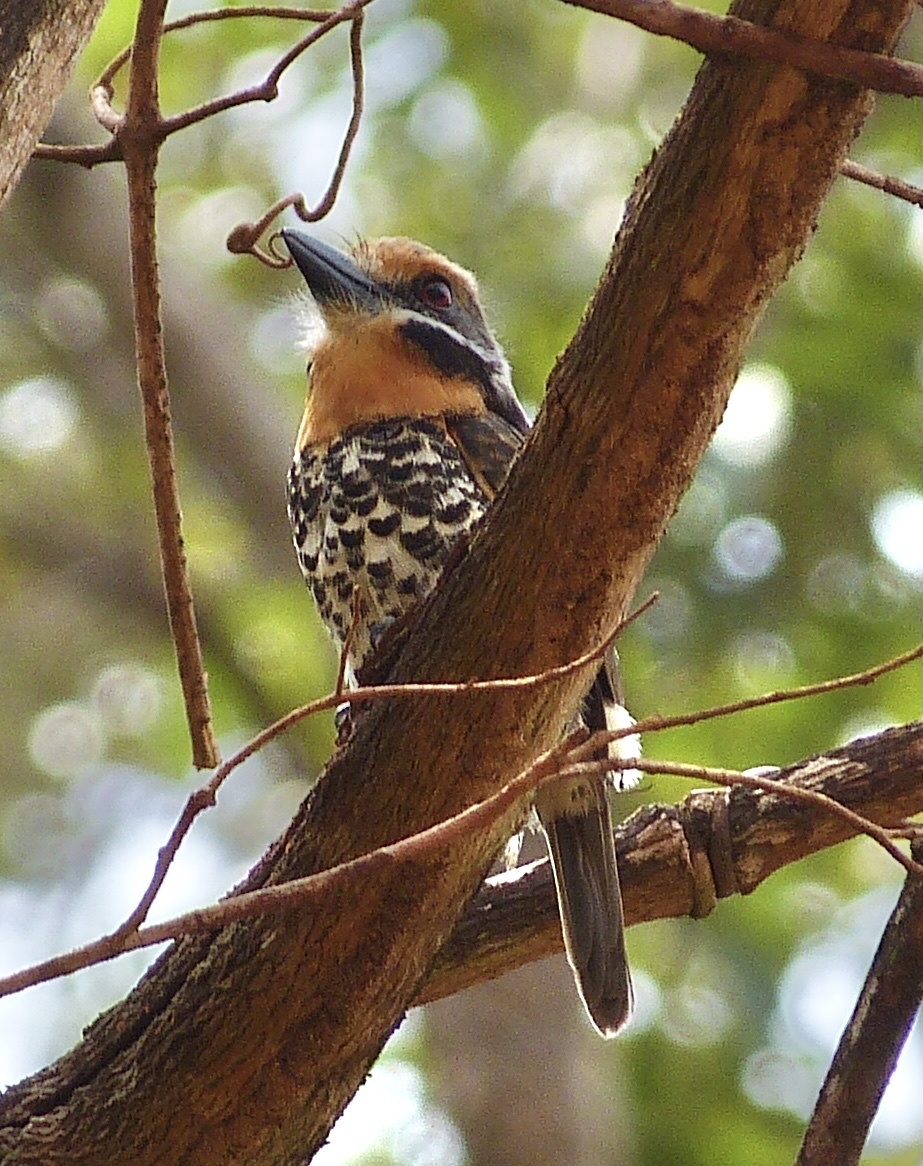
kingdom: Animalia
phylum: Chordata
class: Aves
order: Piciformes
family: Bucconidae
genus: Bucco
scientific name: Bucco tamatia
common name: Spotted puffbird
